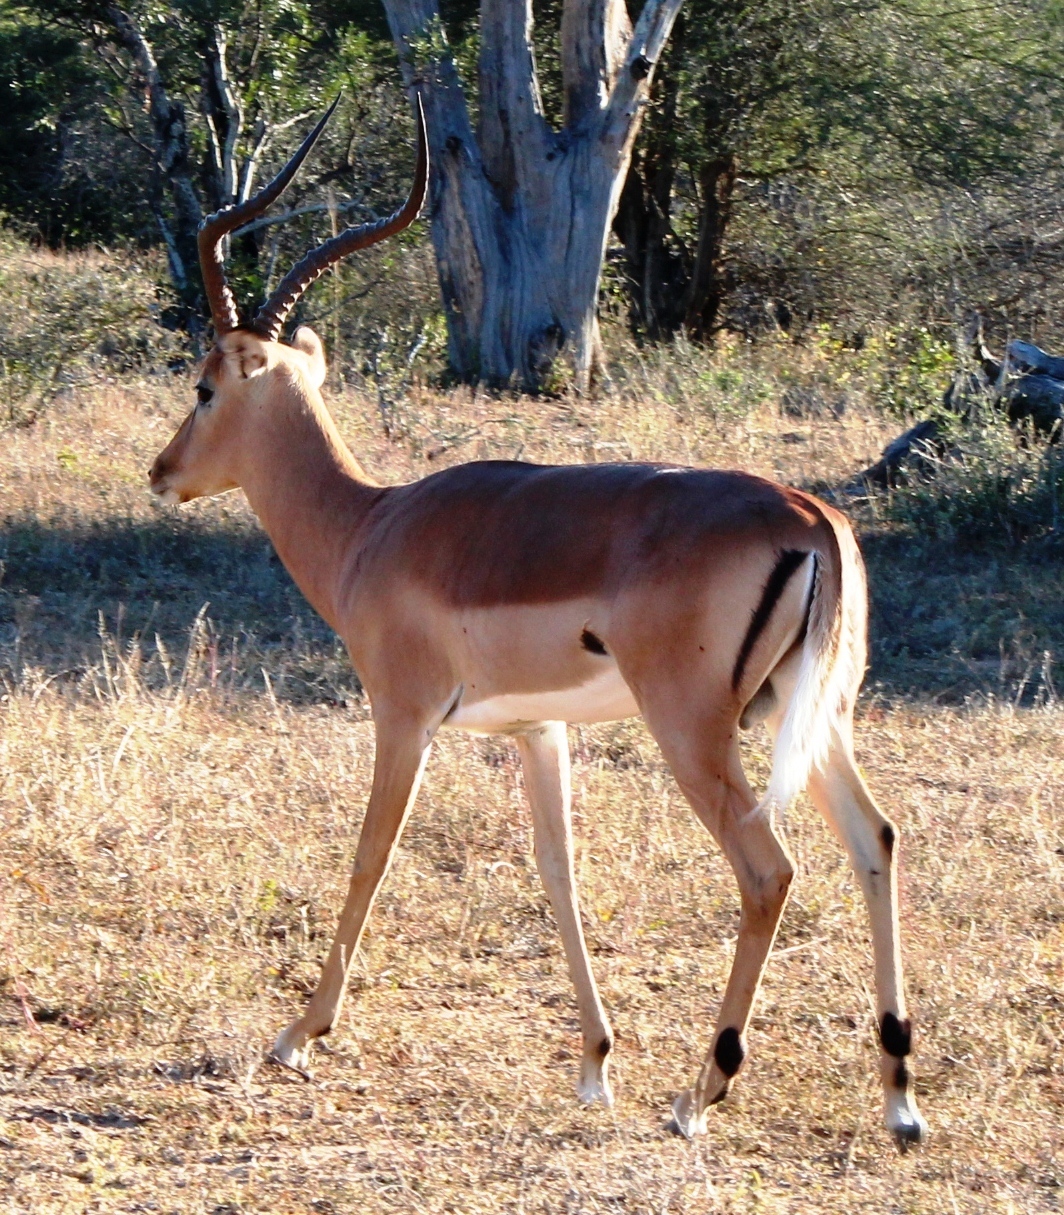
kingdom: Animalia
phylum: Chordata
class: Mammalia
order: Artiodactyla
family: Bovidae
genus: Aepyceros
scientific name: Aepyceros melampus
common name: Impala
